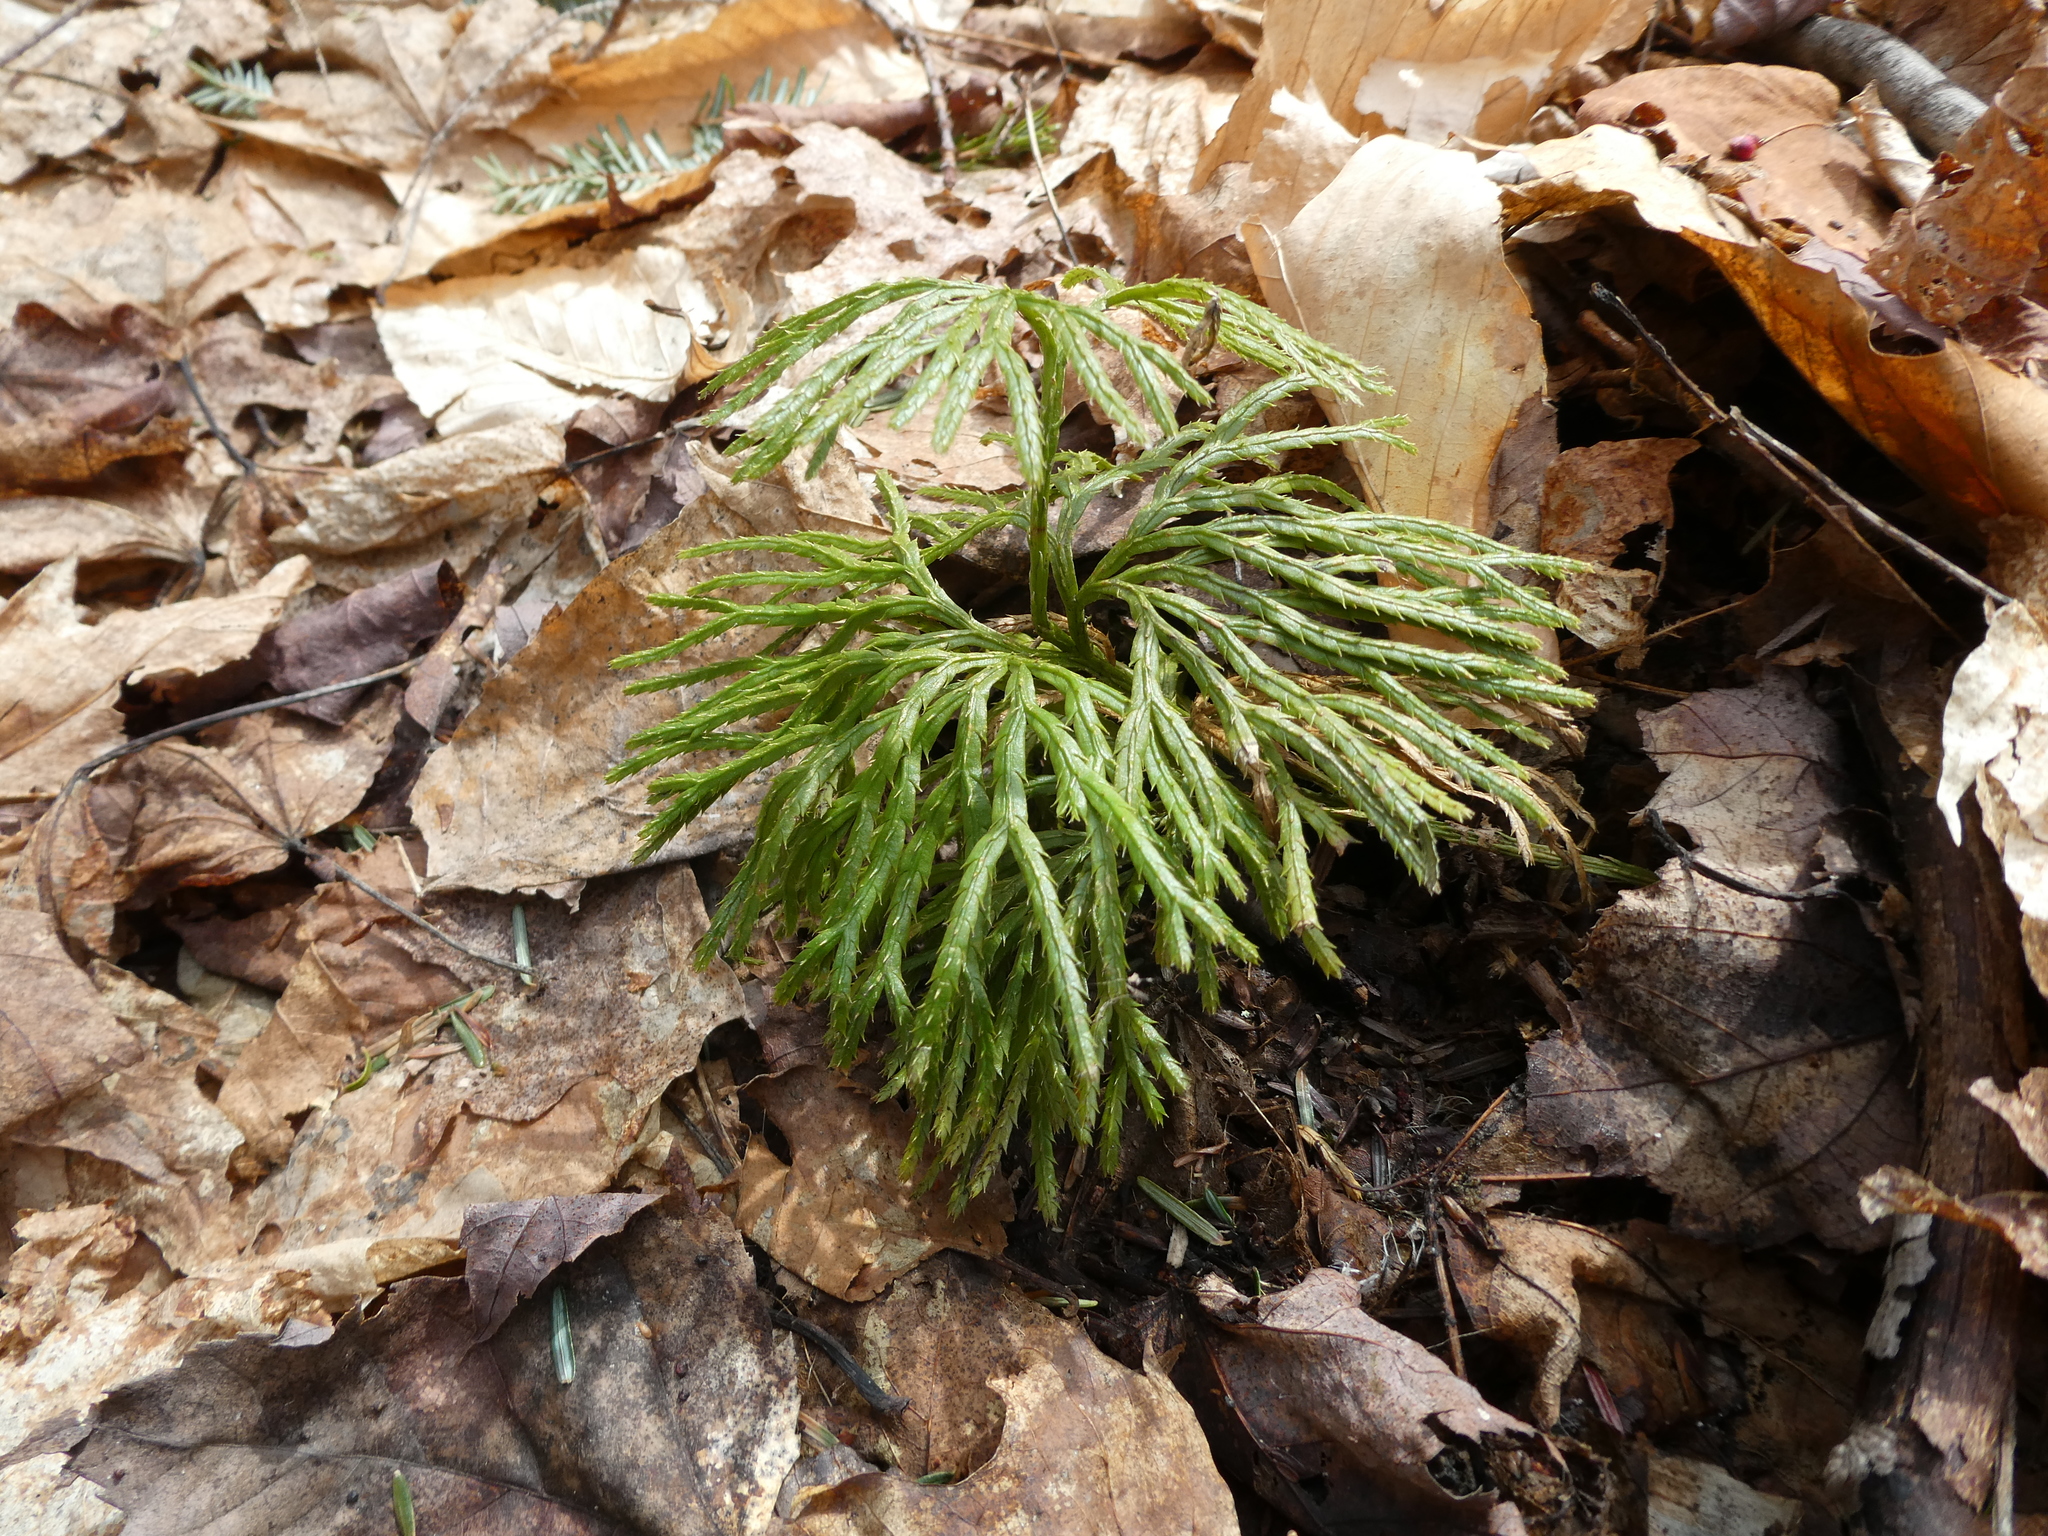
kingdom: Plantae
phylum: Tracheophyta
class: Lycopodiopsida
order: Lycopodiales
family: Lycopodiaceae
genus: Diphasiastrum
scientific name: Diphasiastrum digitatum
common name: Southern running-pine
